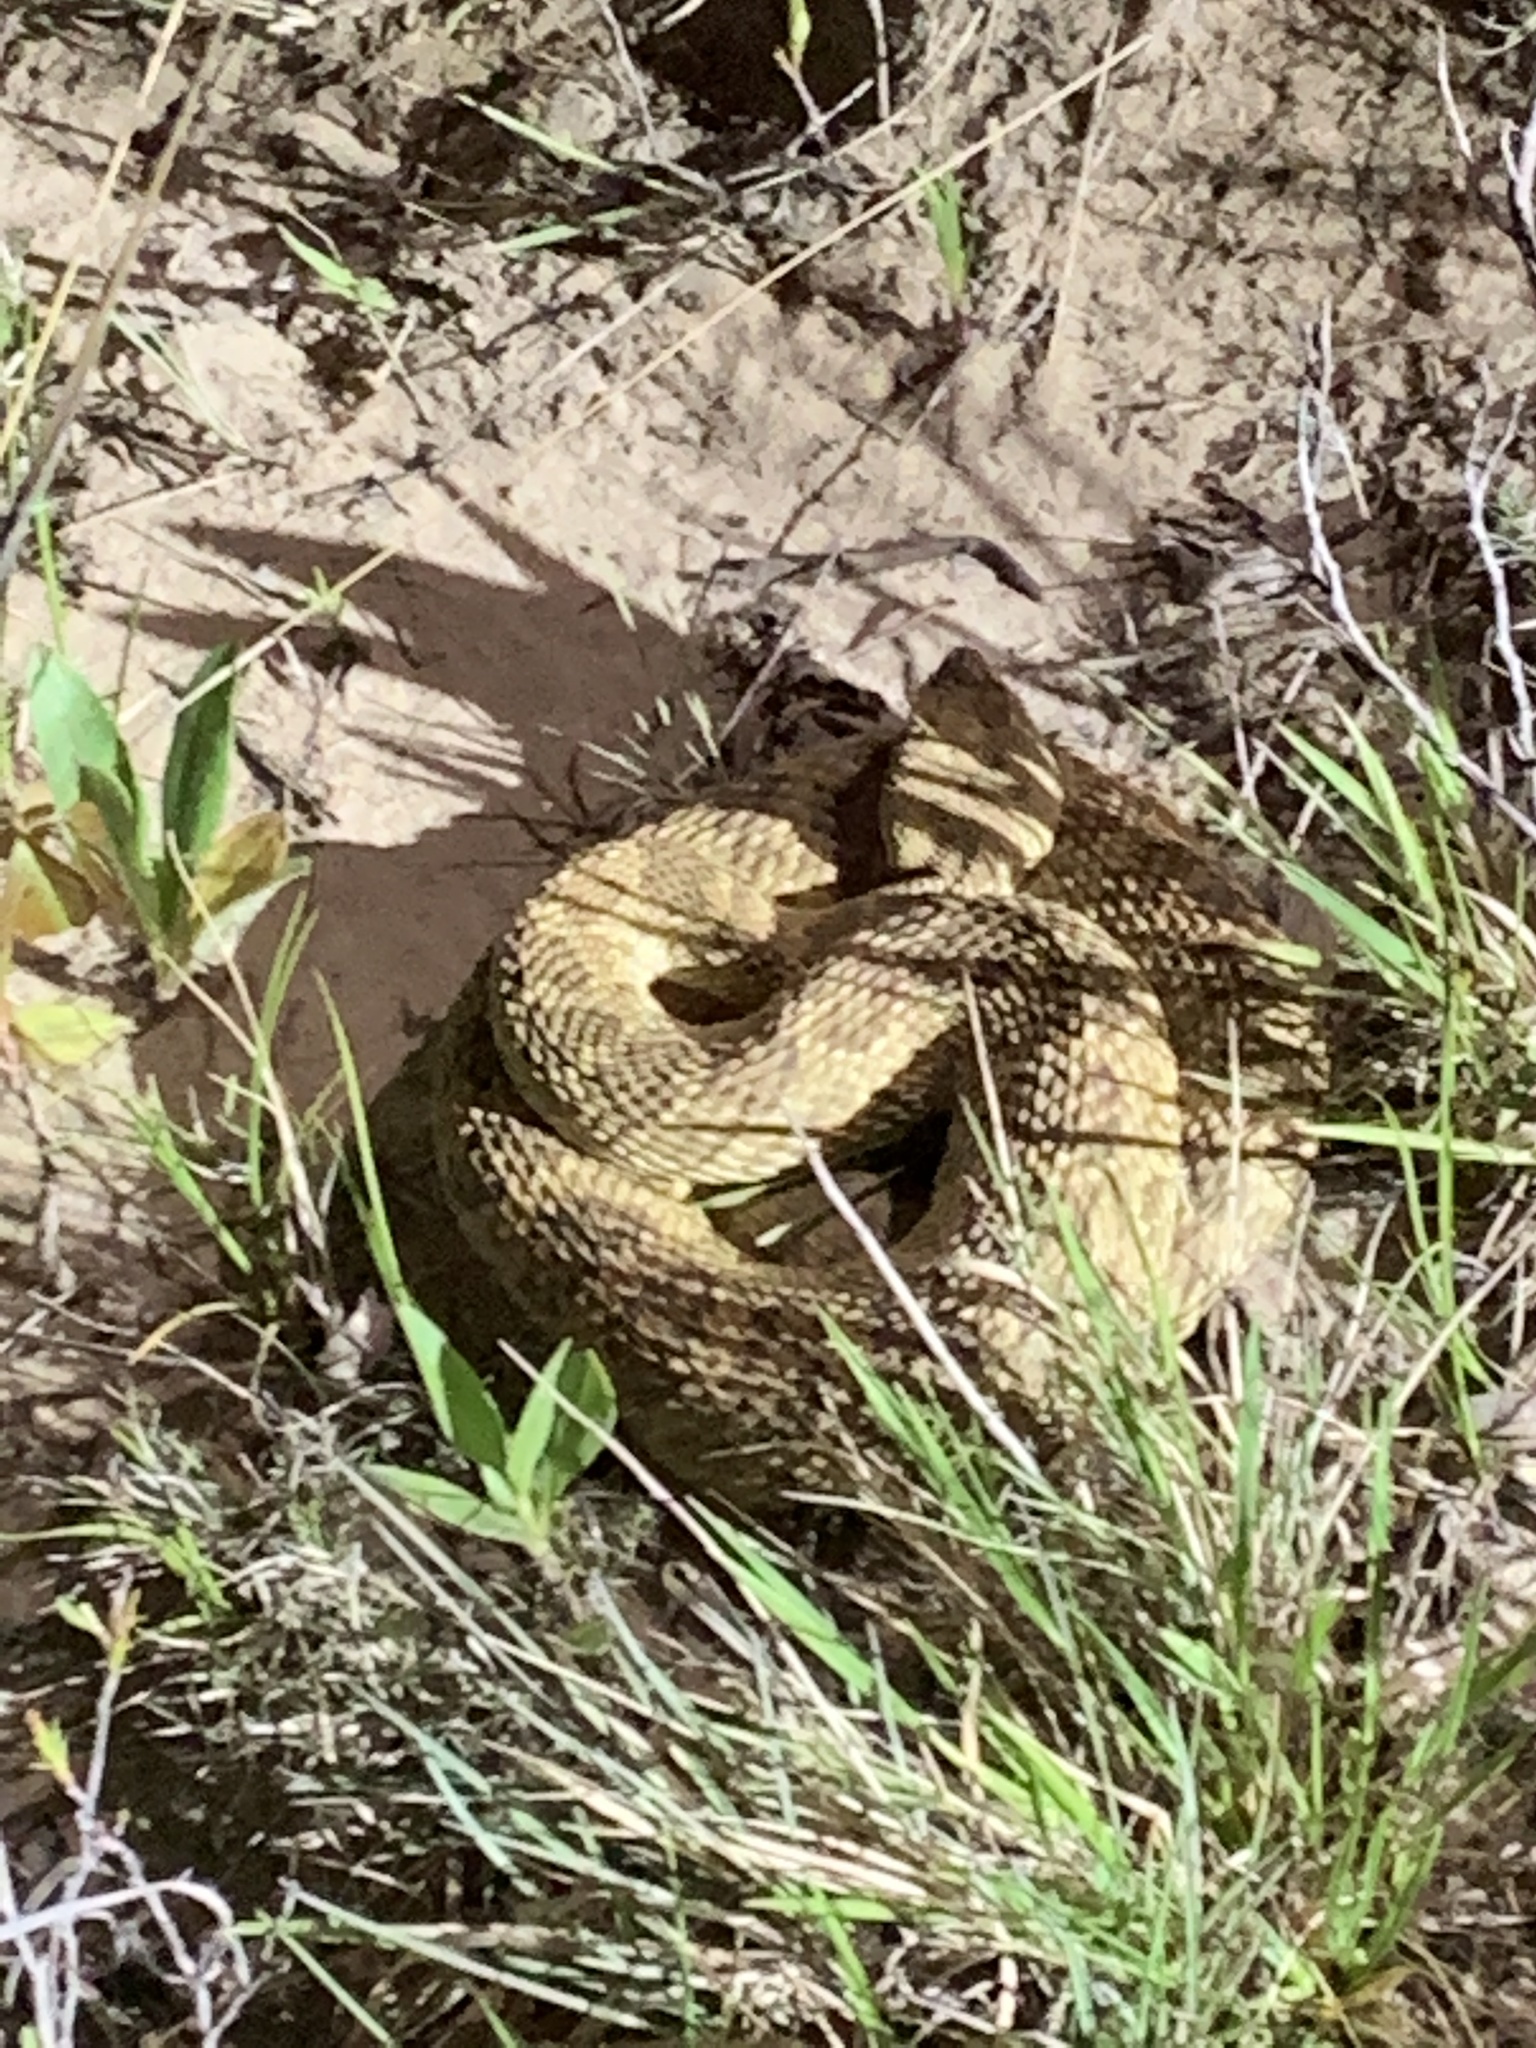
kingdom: Animalia
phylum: Chordata
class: Squamata
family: Viperidae
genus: Crotalus
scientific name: Crotalus viridis
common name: Prairie rattlesnake
